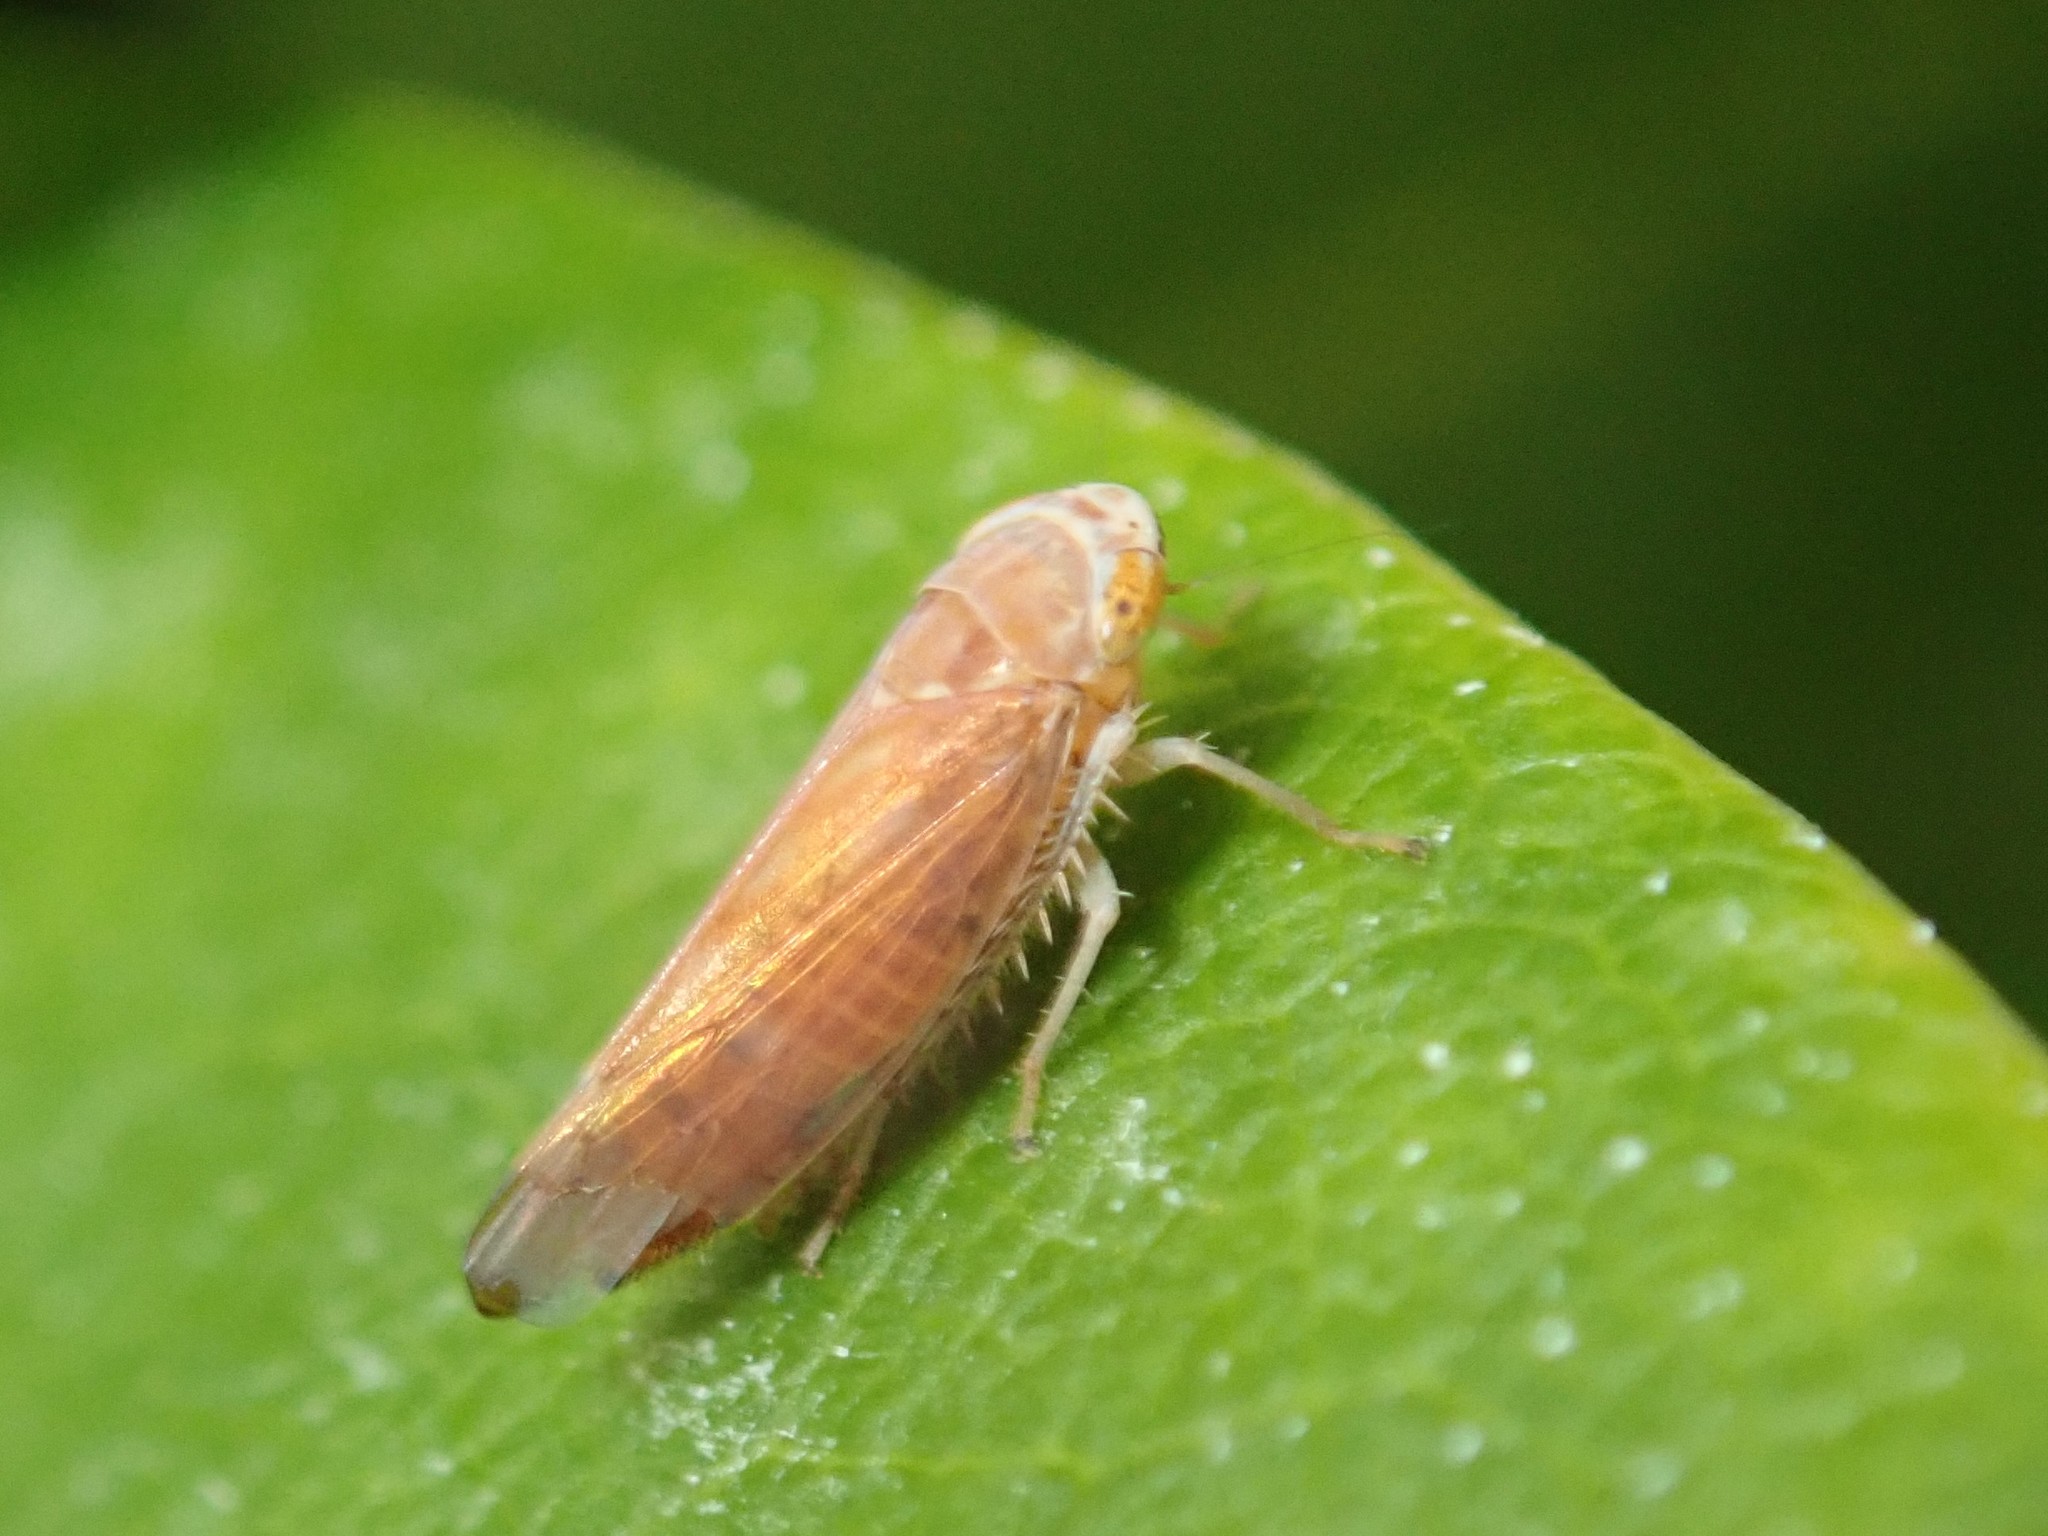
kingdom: Animalia
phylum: Arthropoda
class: Insecta
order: Hemiptera
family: Cicadellidae
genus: Placotettix
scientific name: Placotettix taeniatifrons
